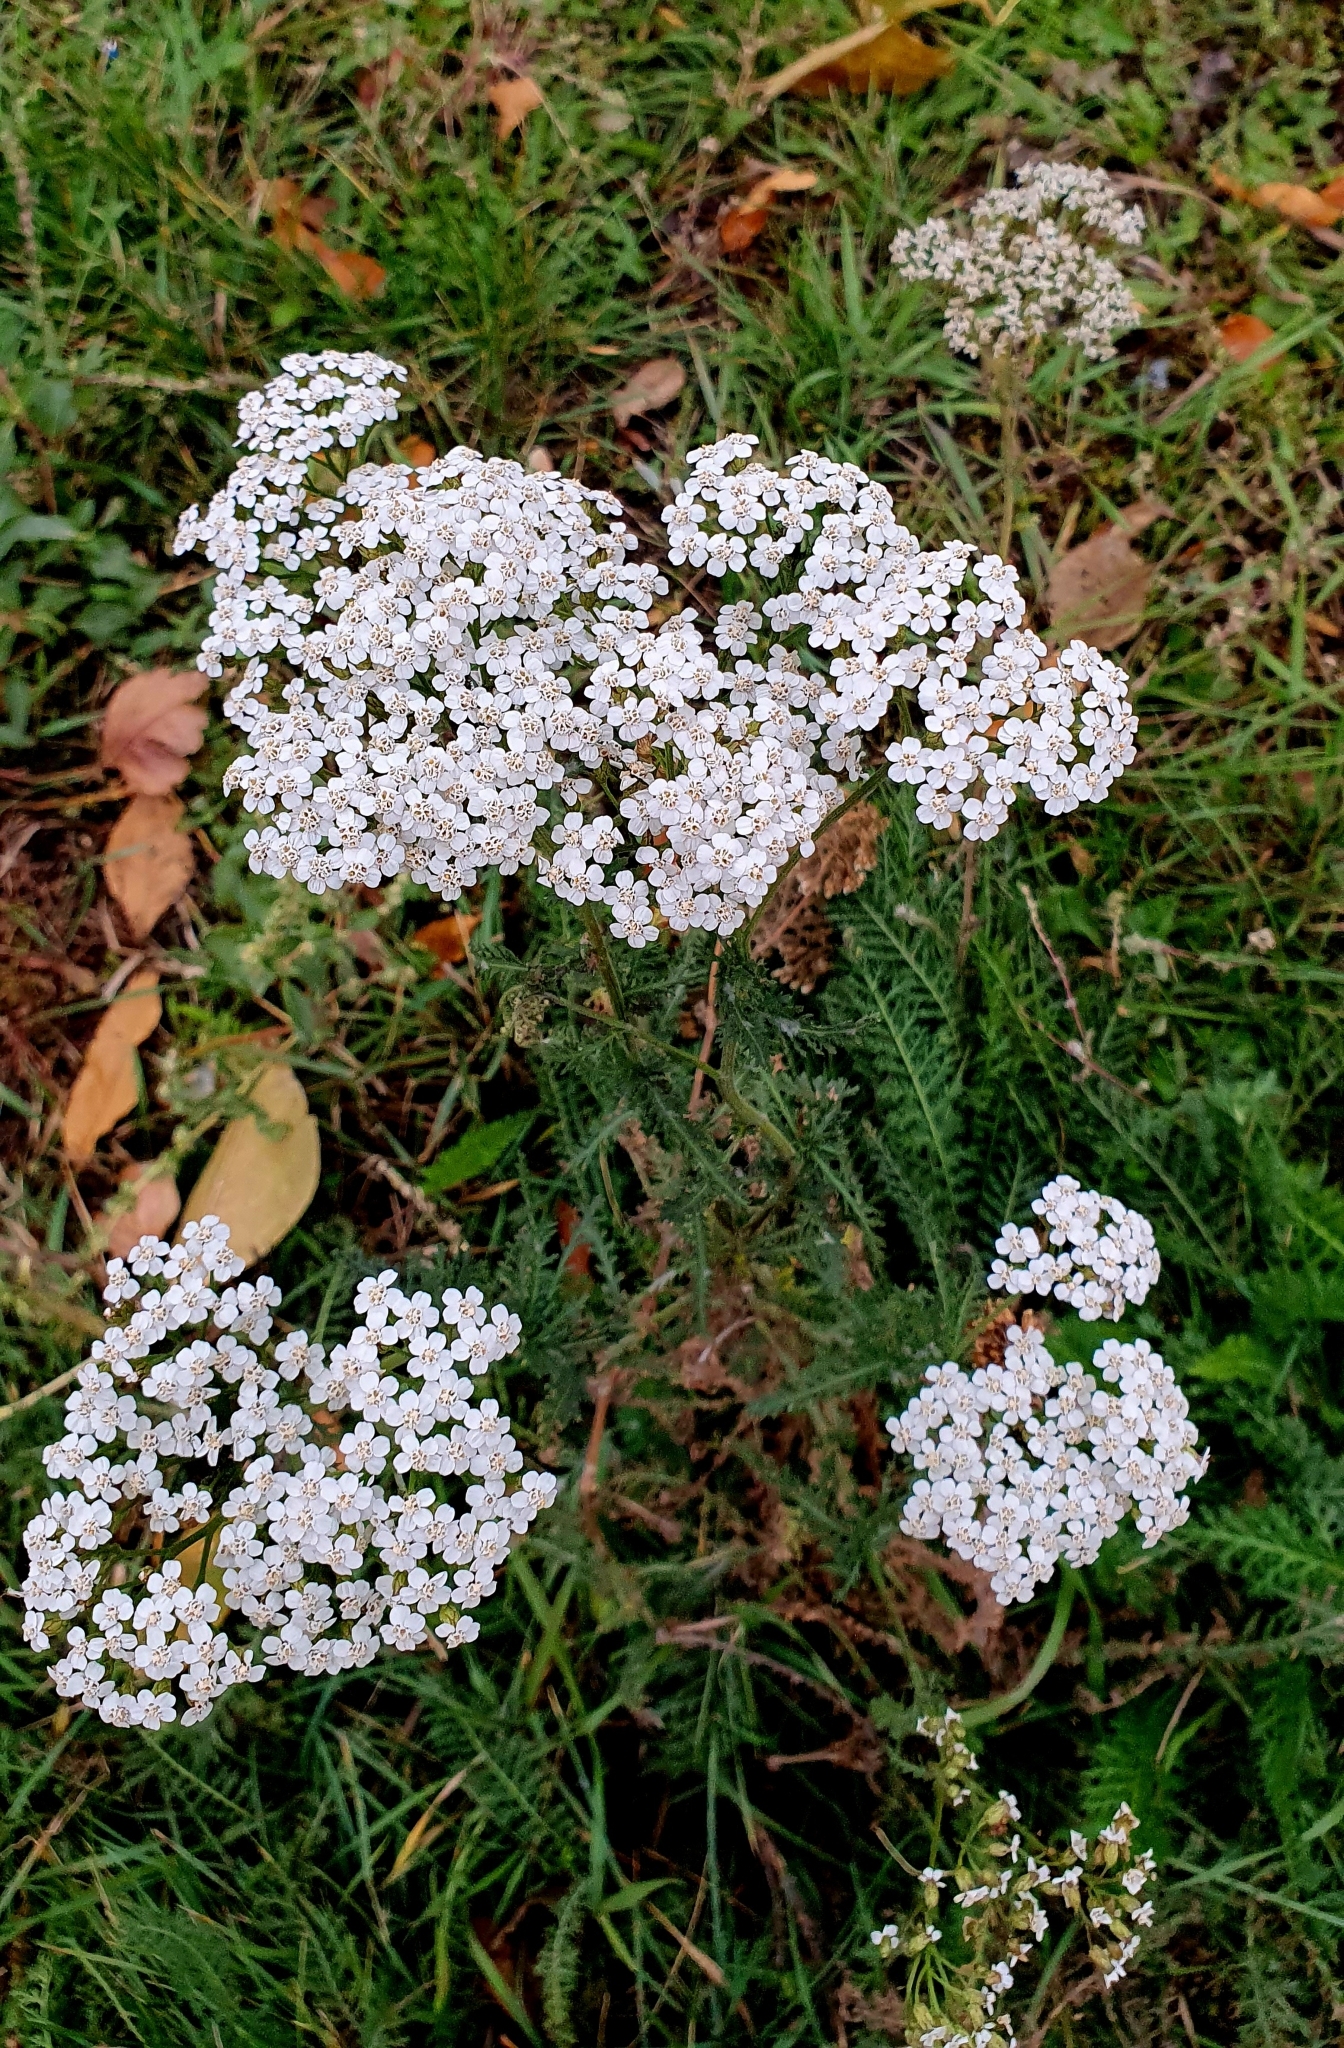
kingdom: Plantae
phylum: Tracheophyta
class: Magnoliopsida
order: Asterales
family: Asteraceae
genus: Achillea
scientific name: Achillea millefolium
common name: Yarrow
